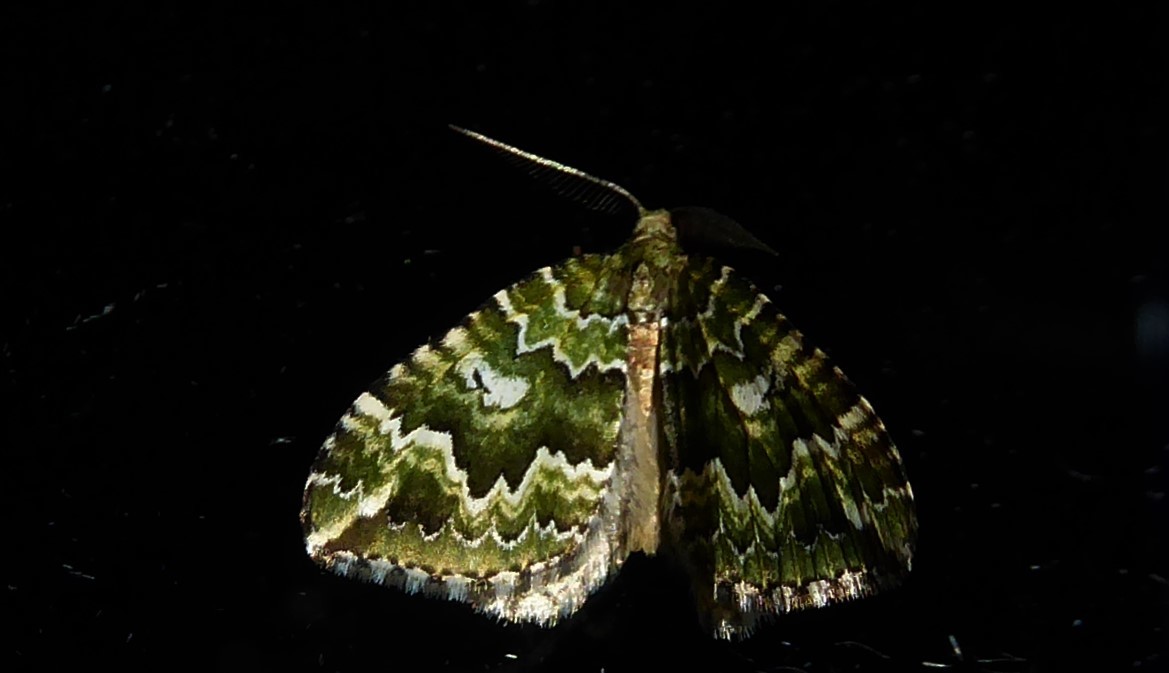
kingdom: Animalia
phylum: Arthropoda
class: Insecta
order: Lepidoptera
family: Geometridae
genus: Asaphodes
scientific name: Asaphodes beata
